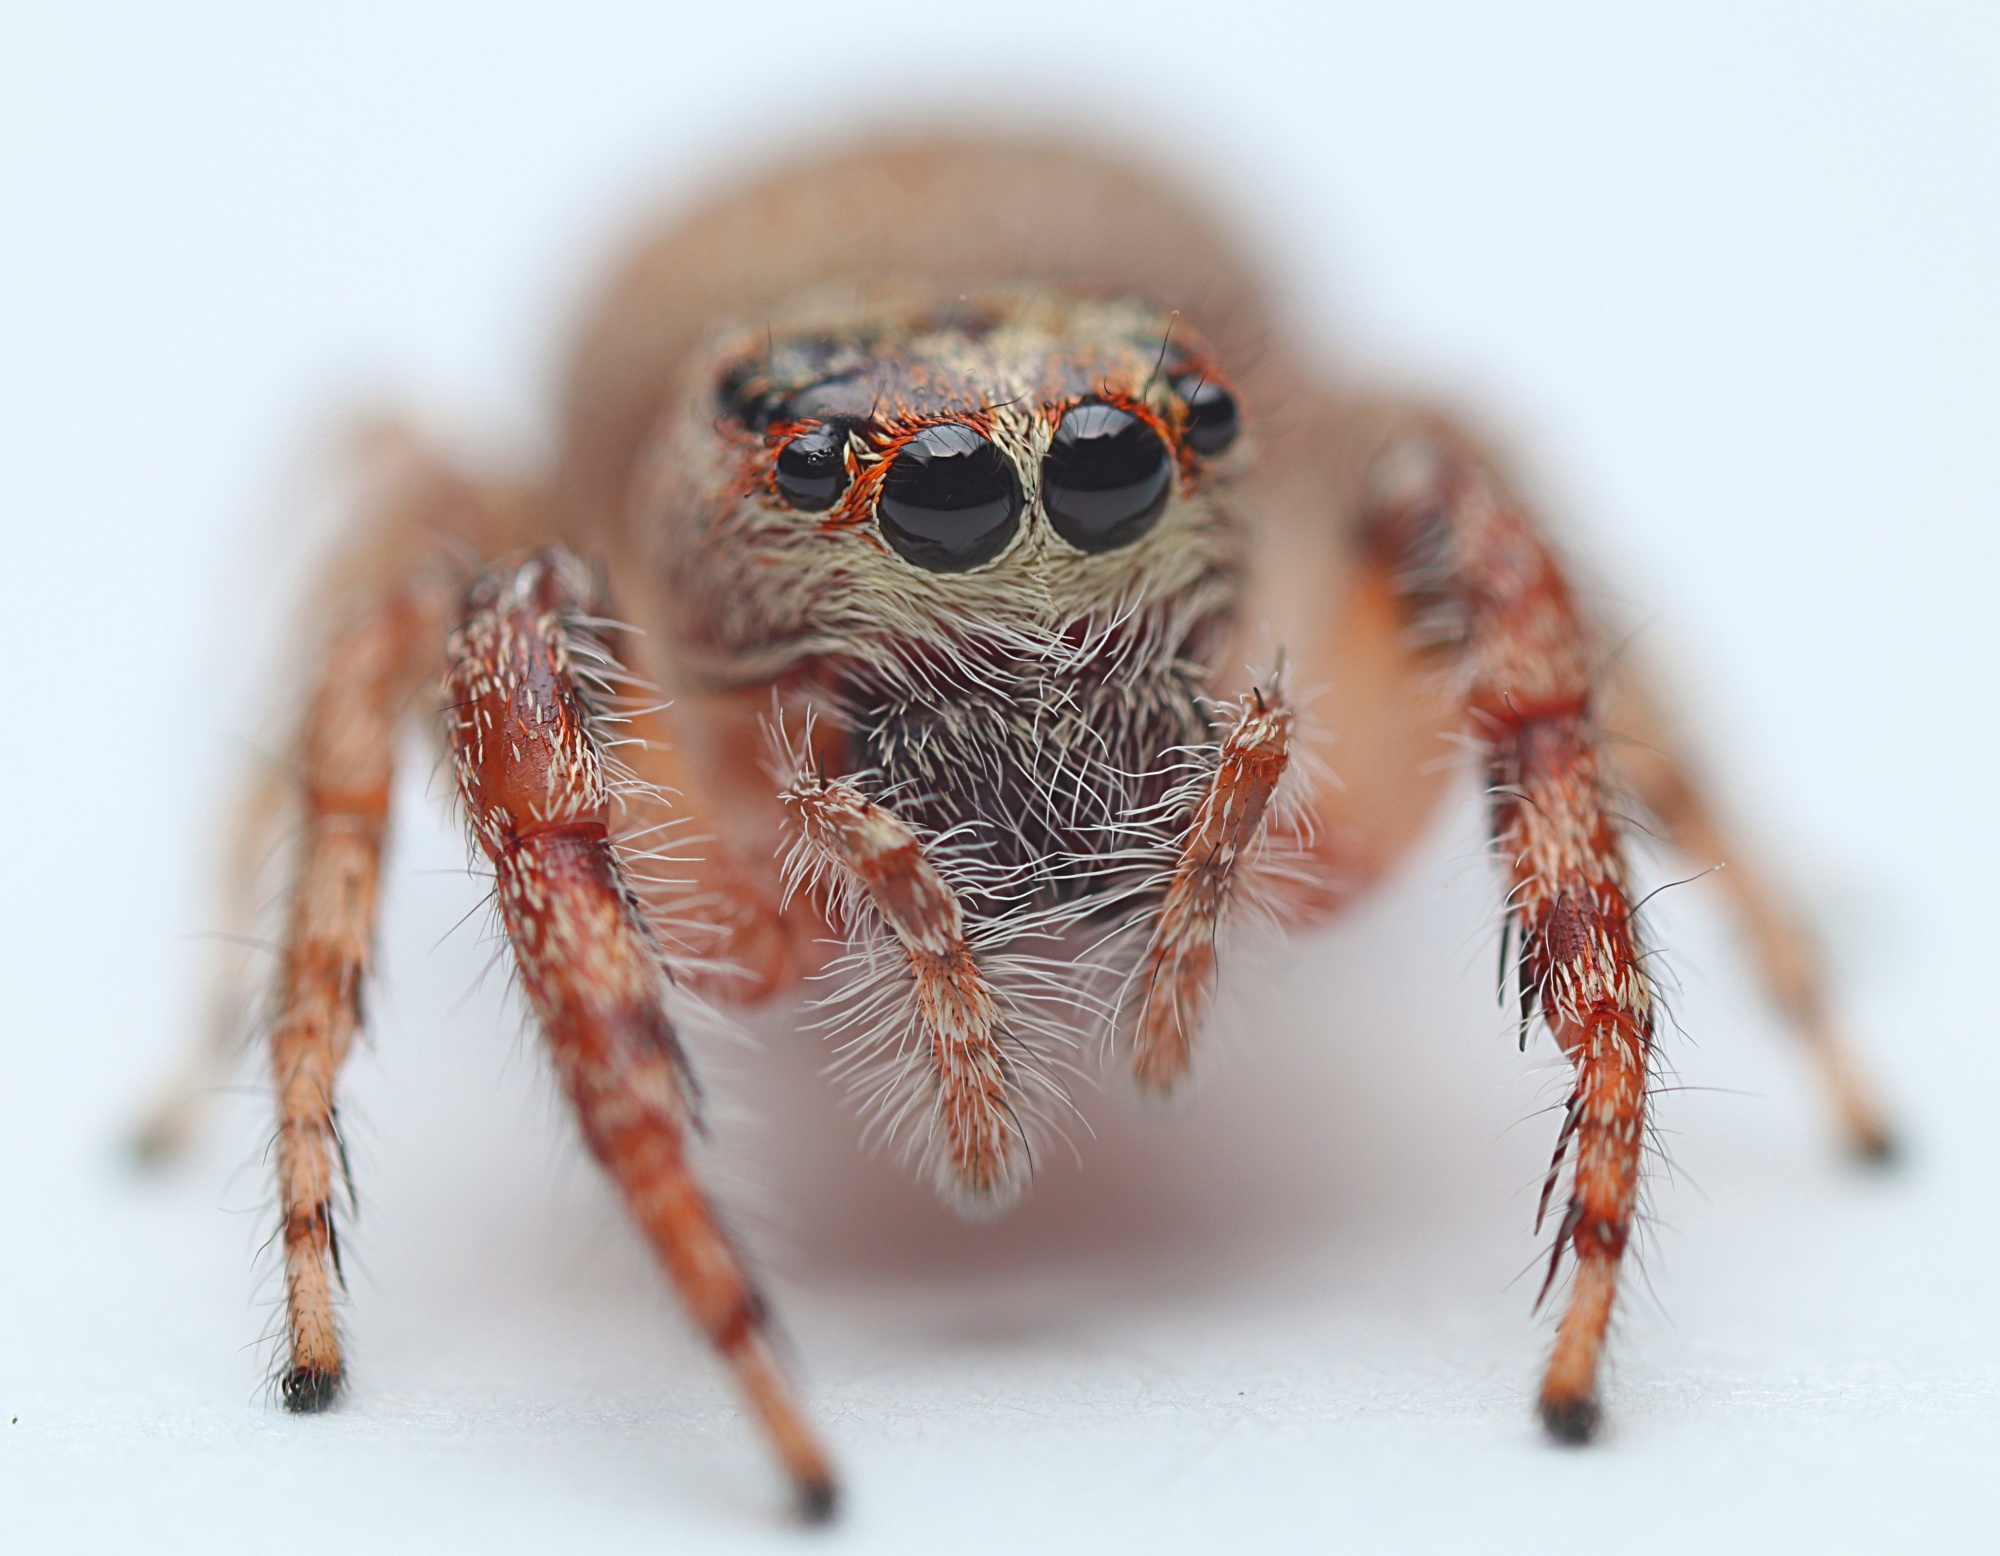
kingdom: Animalia
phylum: Arthropoda
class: Arachnida
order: Araneae
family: Salticidae
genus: Opisthoncus
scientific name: Opisthoncus polyphemus
